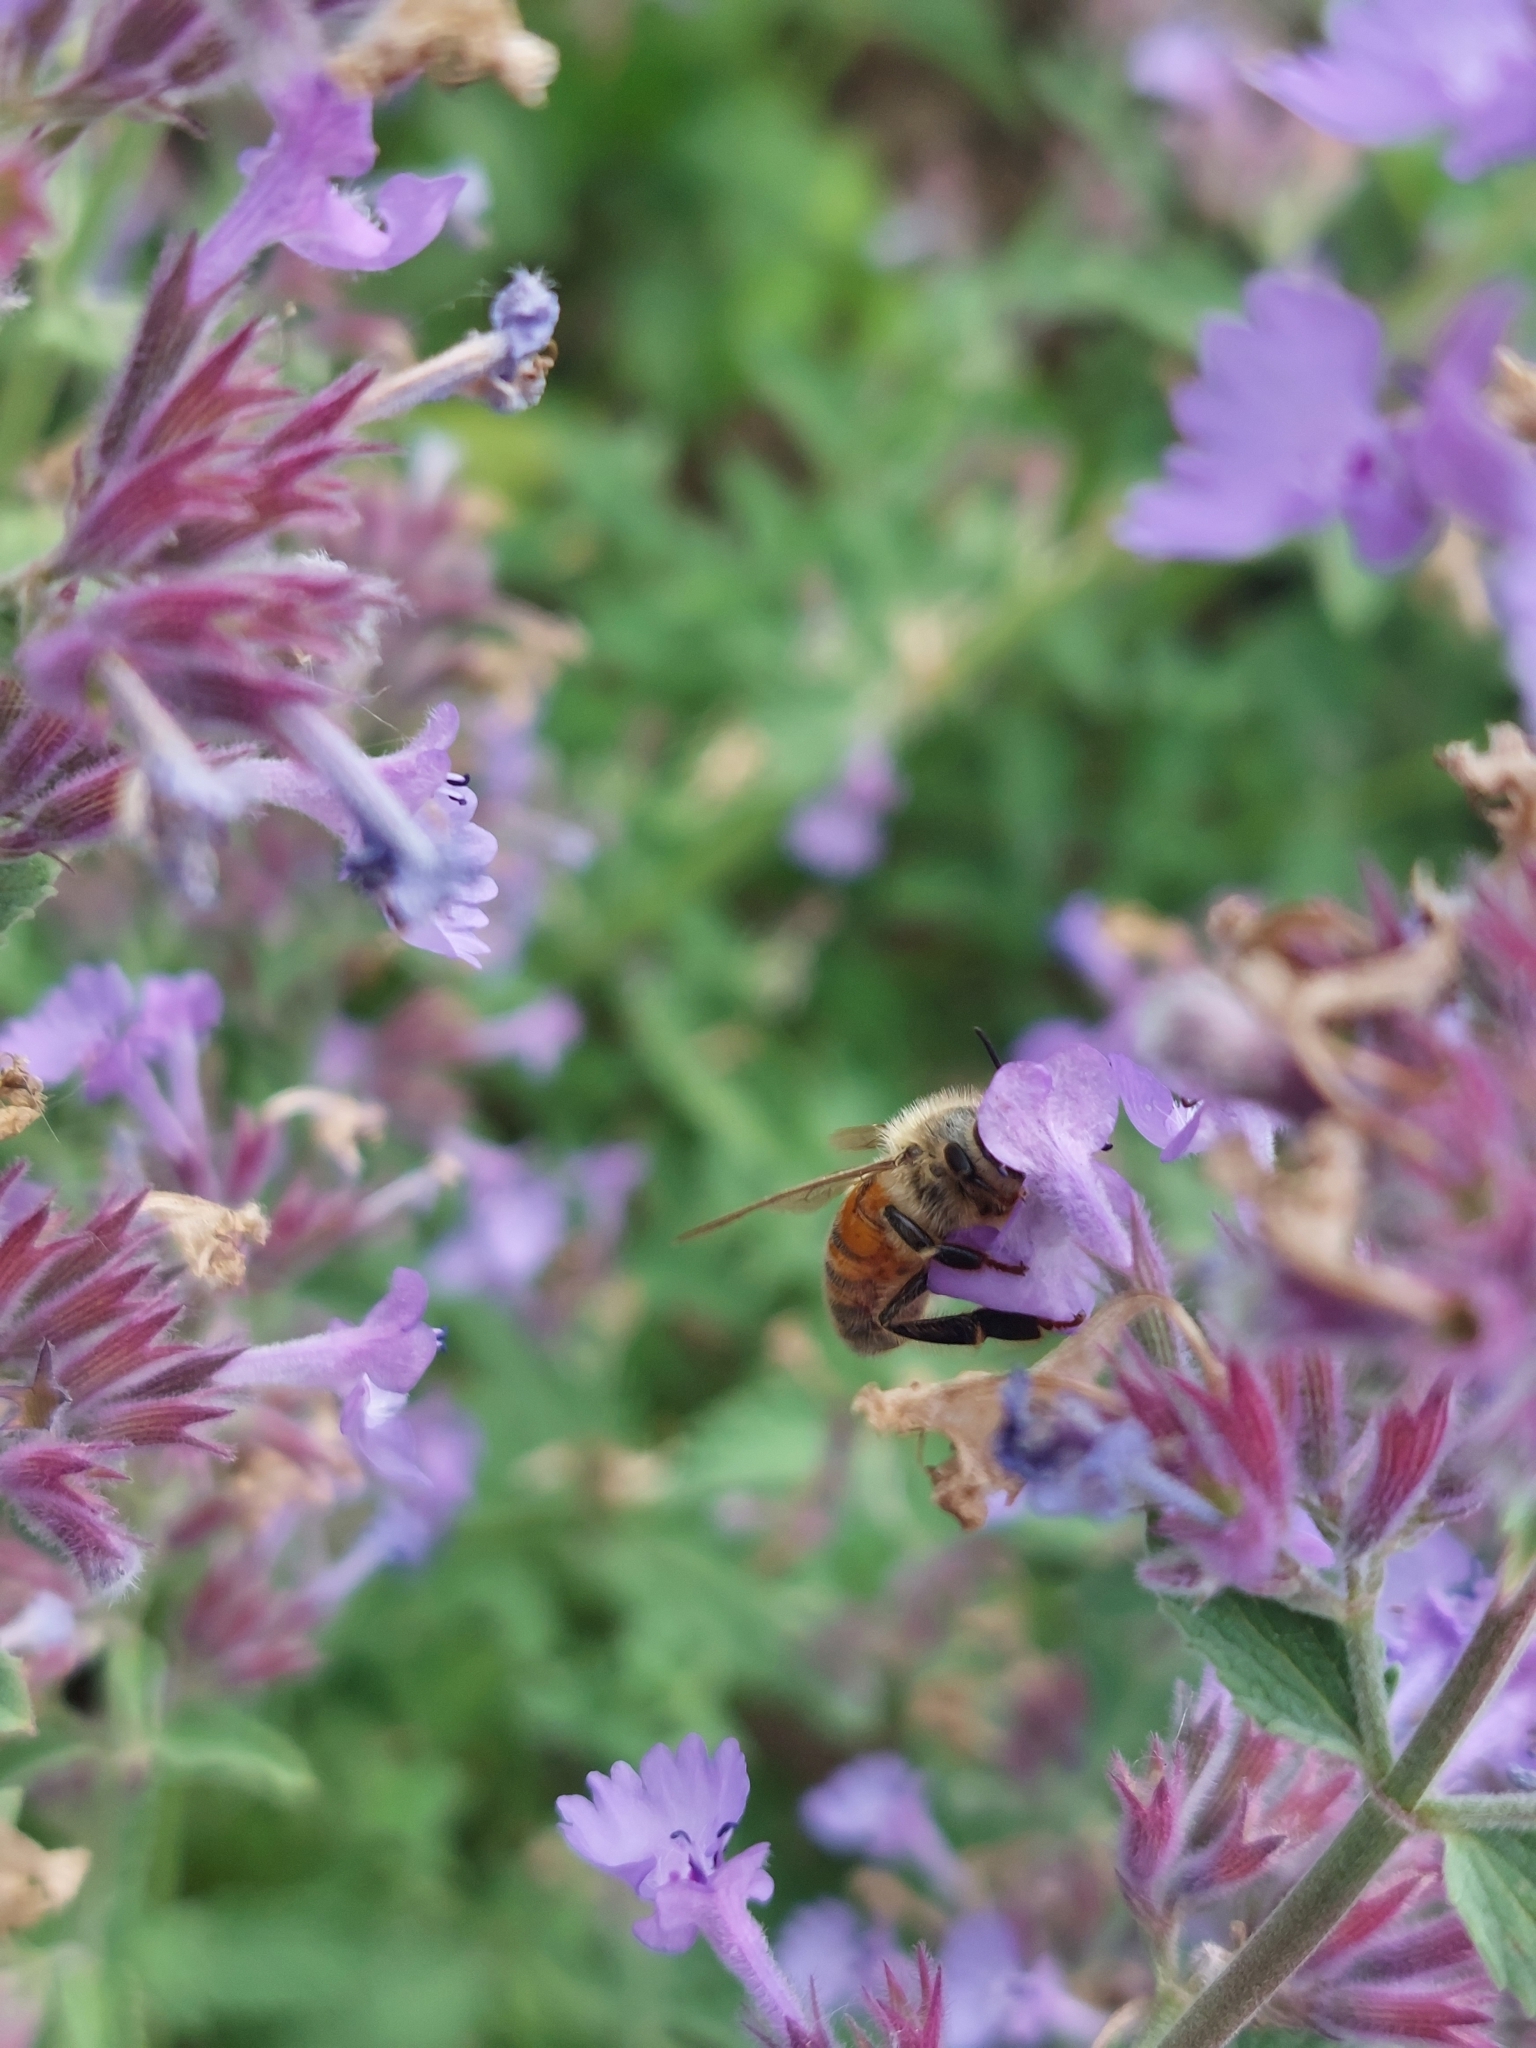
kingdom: Animalia
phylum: Arthropoda
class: Insecta
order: Hymenoptera
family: Apidae
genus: Apis
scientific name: Apis mellifera
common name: Honey bee
